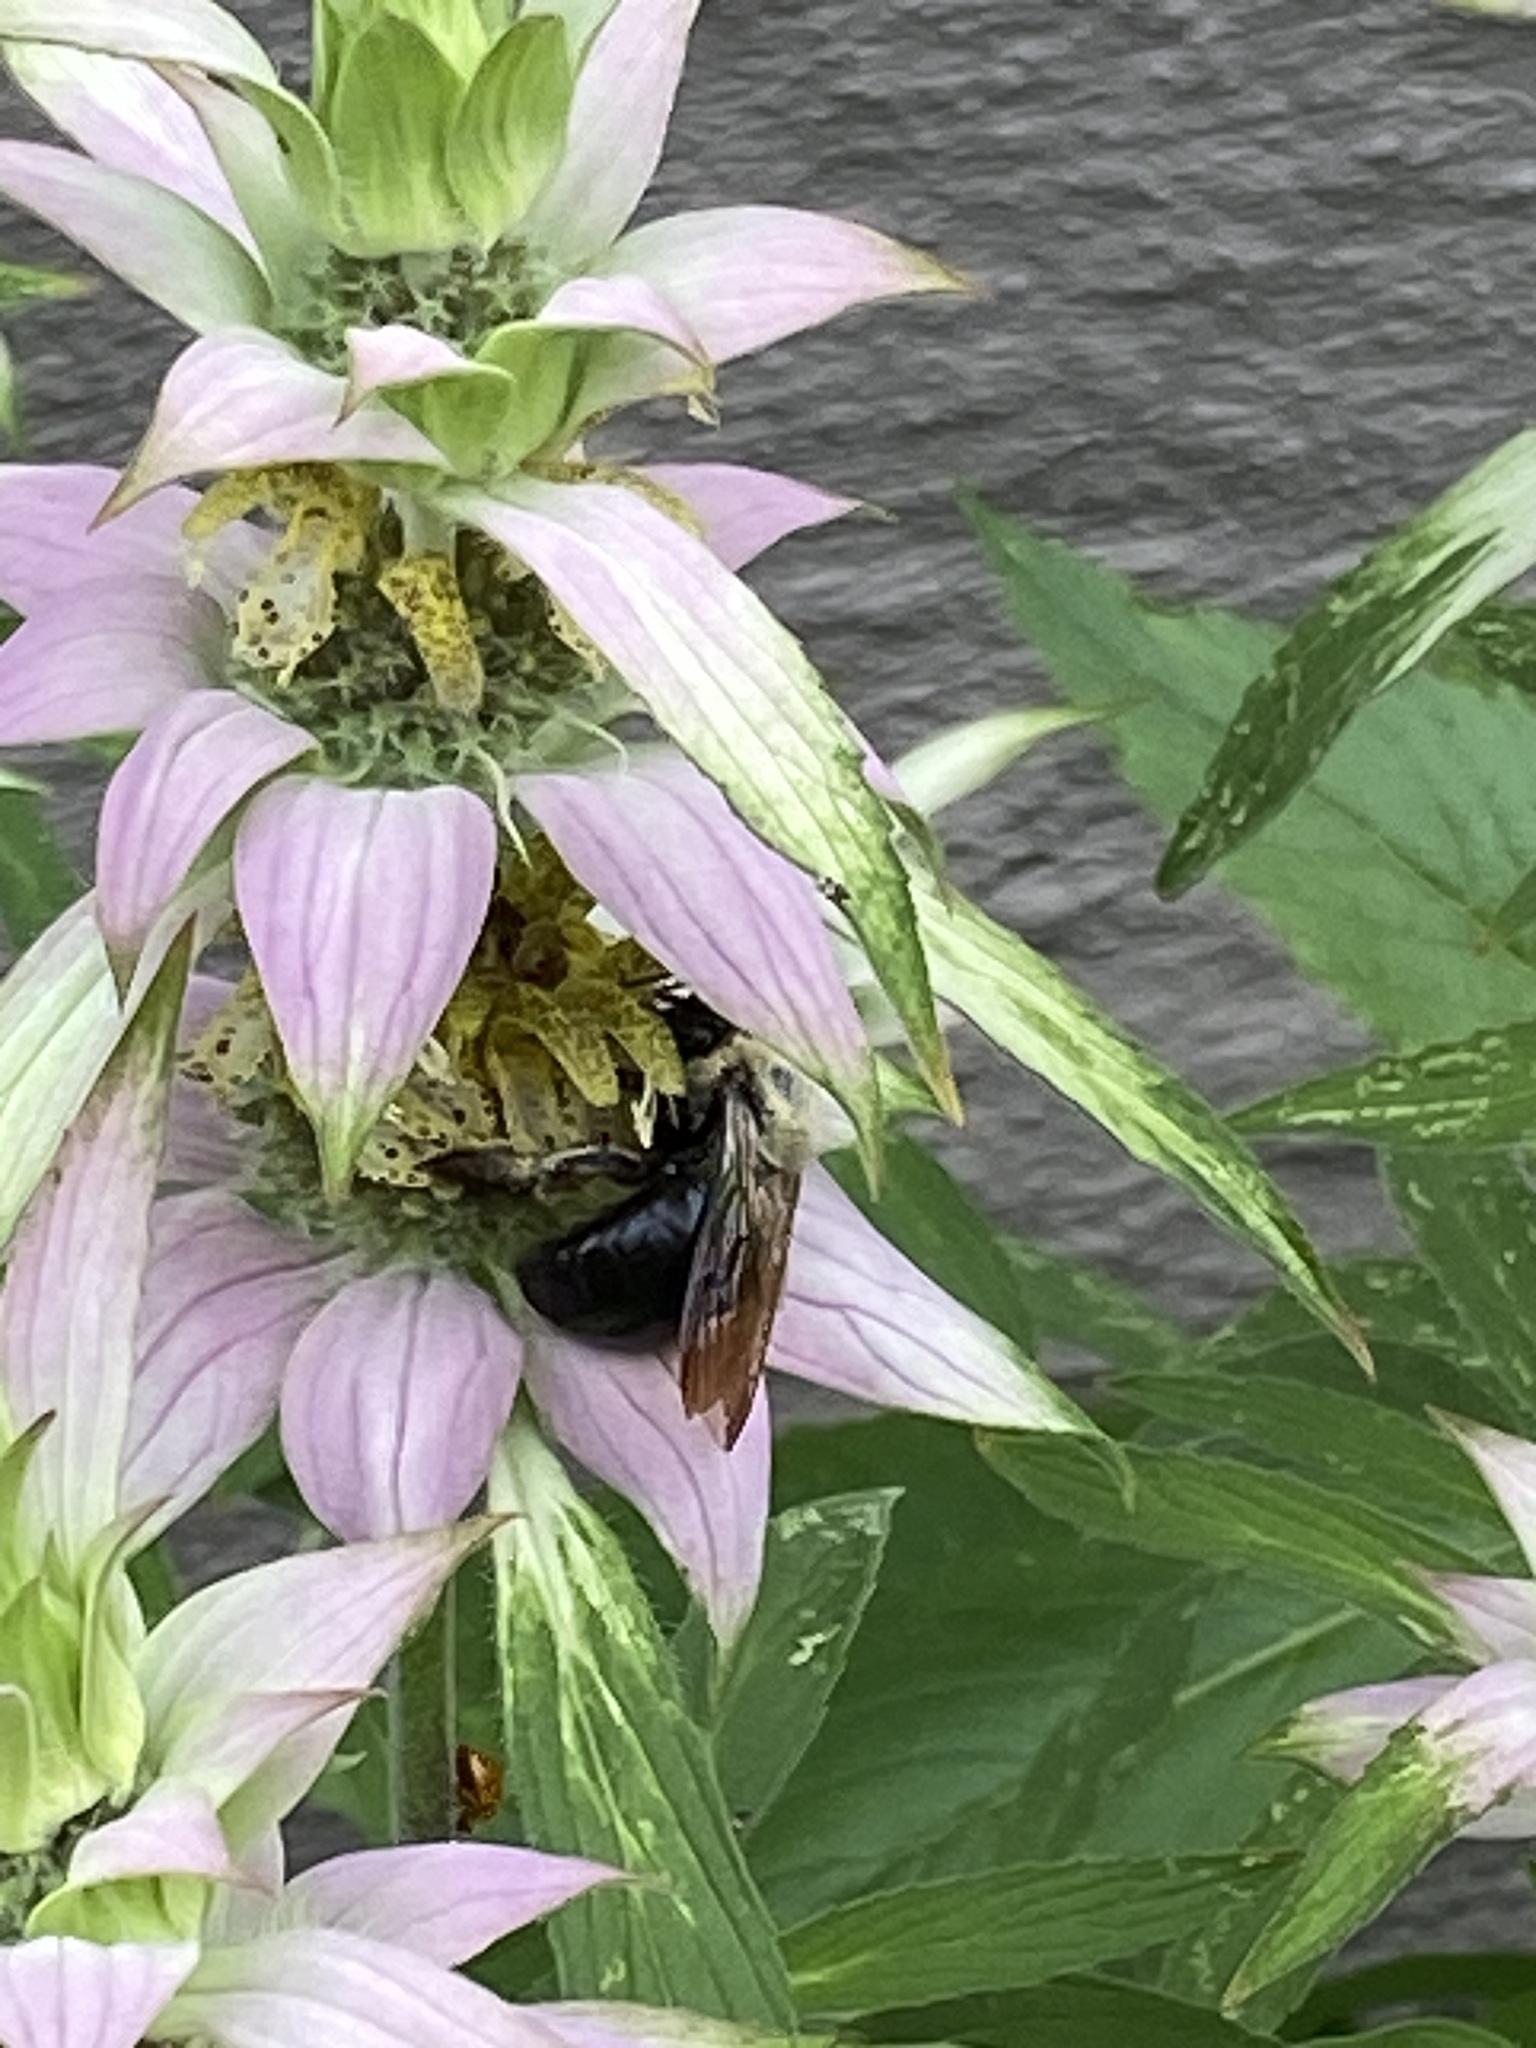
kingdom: Animalia
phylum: Arthropoda
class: Insecta
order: Hymenoptera
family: Apidae
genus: Xylocopa
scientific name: Xylocopa virginica
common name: Carpenter bee
